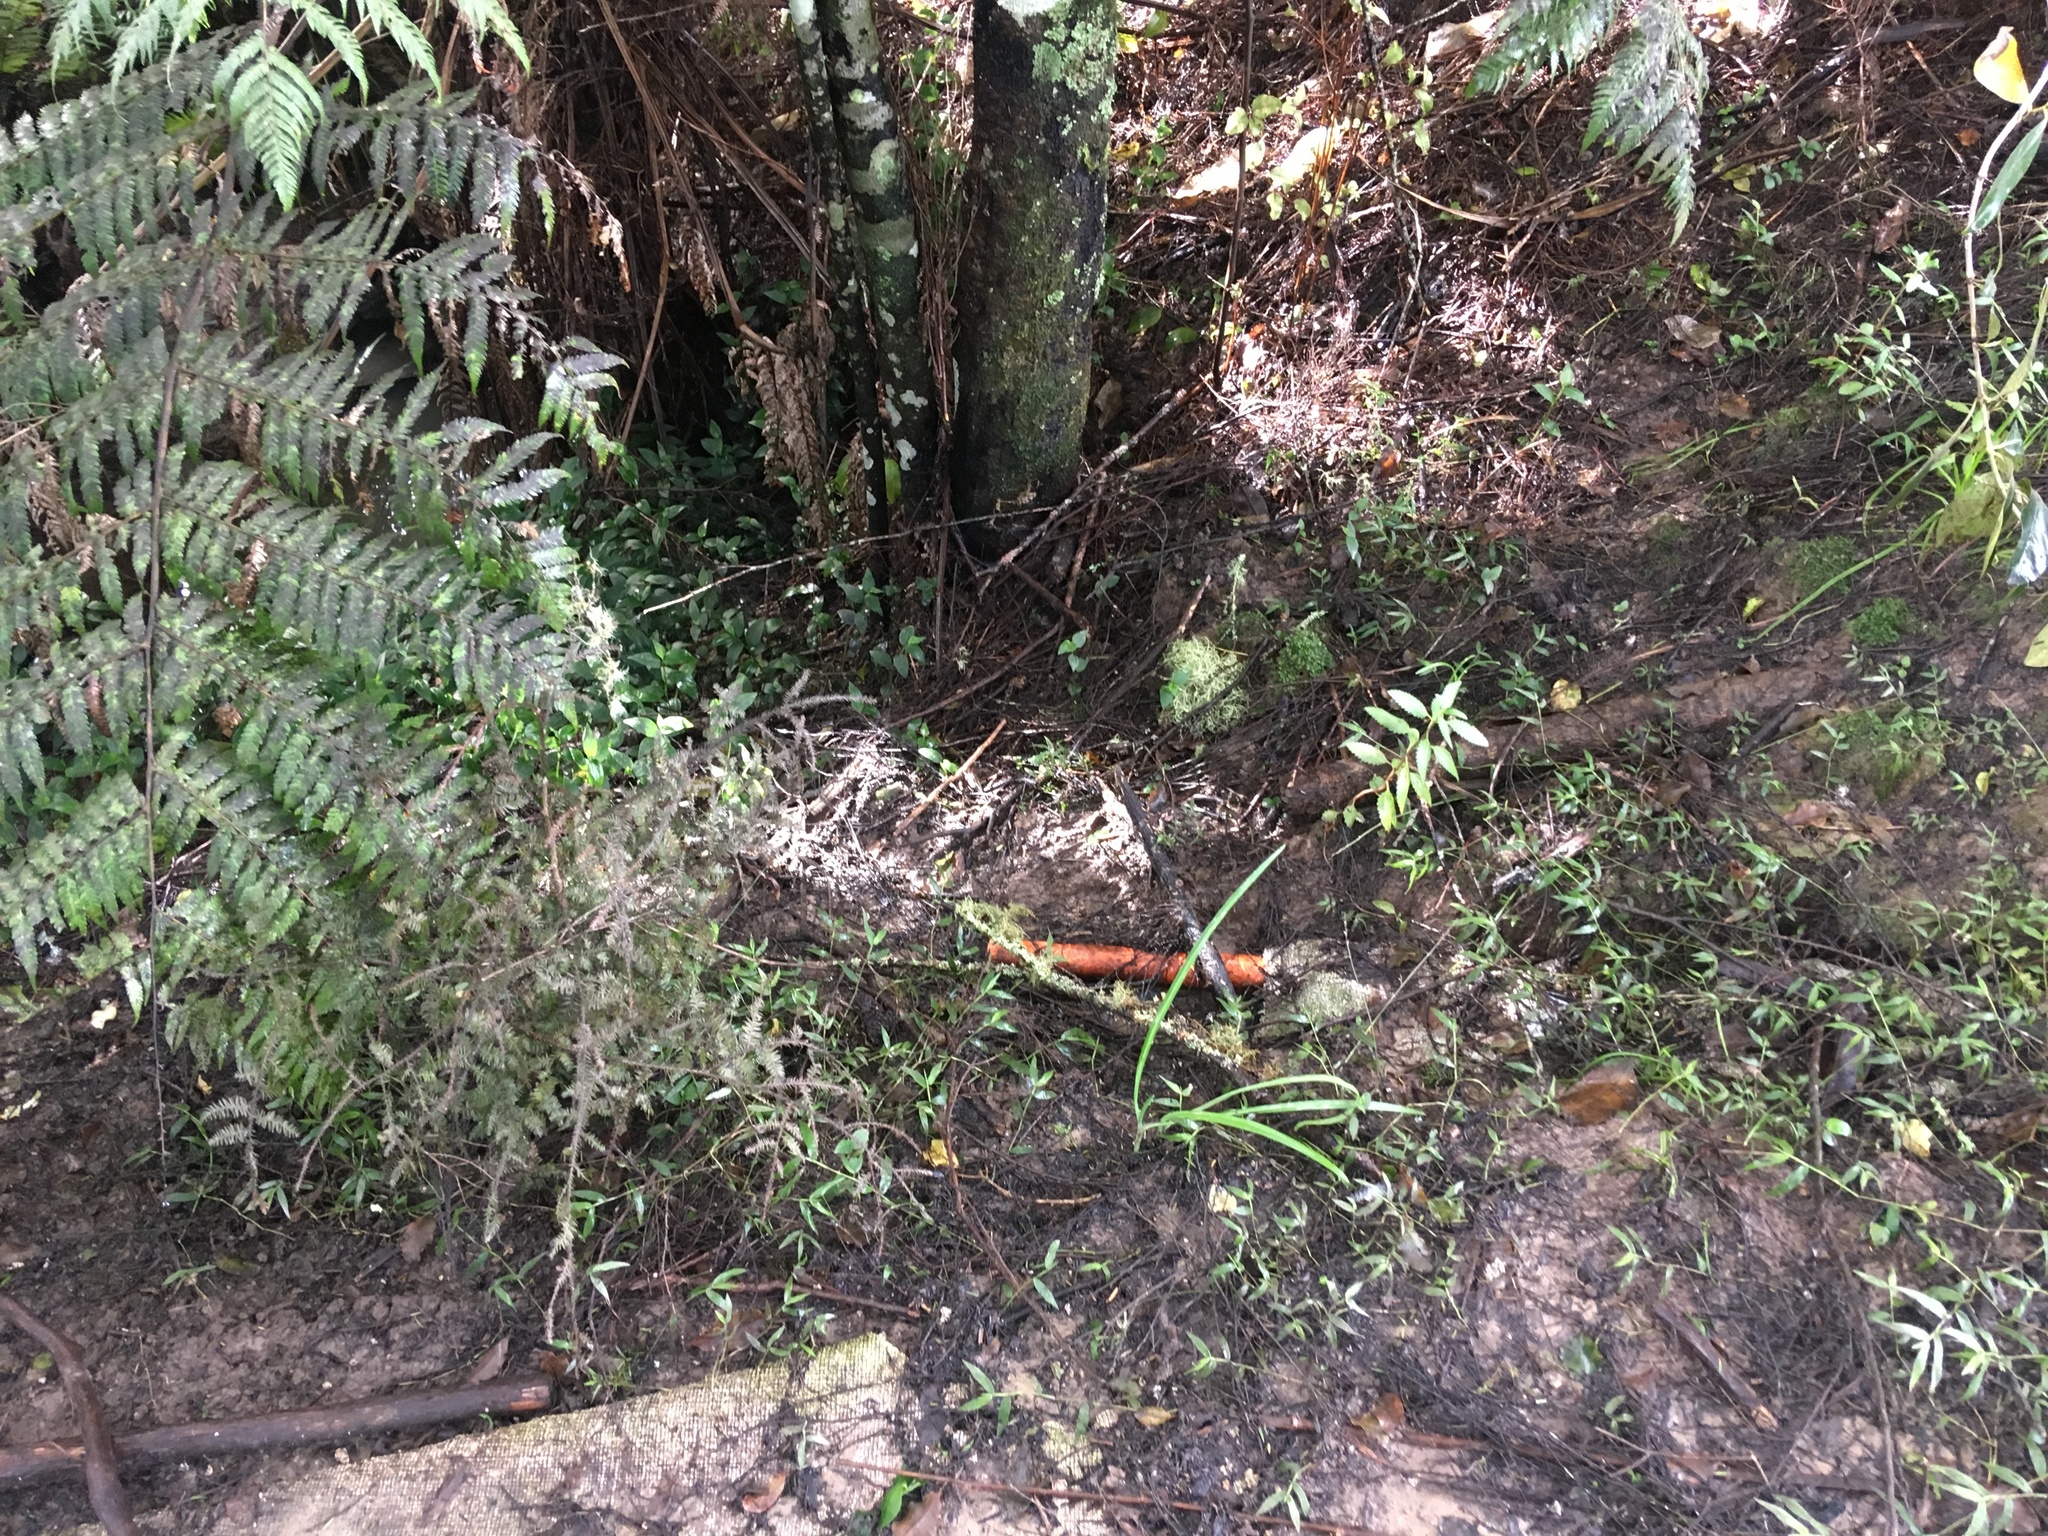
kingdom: Plantae
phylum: Tracheophyta
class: Liliopsida
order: Commelinales
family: Commelinaceae
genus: Tradescantia
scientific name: Tradescantia fluminensis
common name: Wandering-jew
